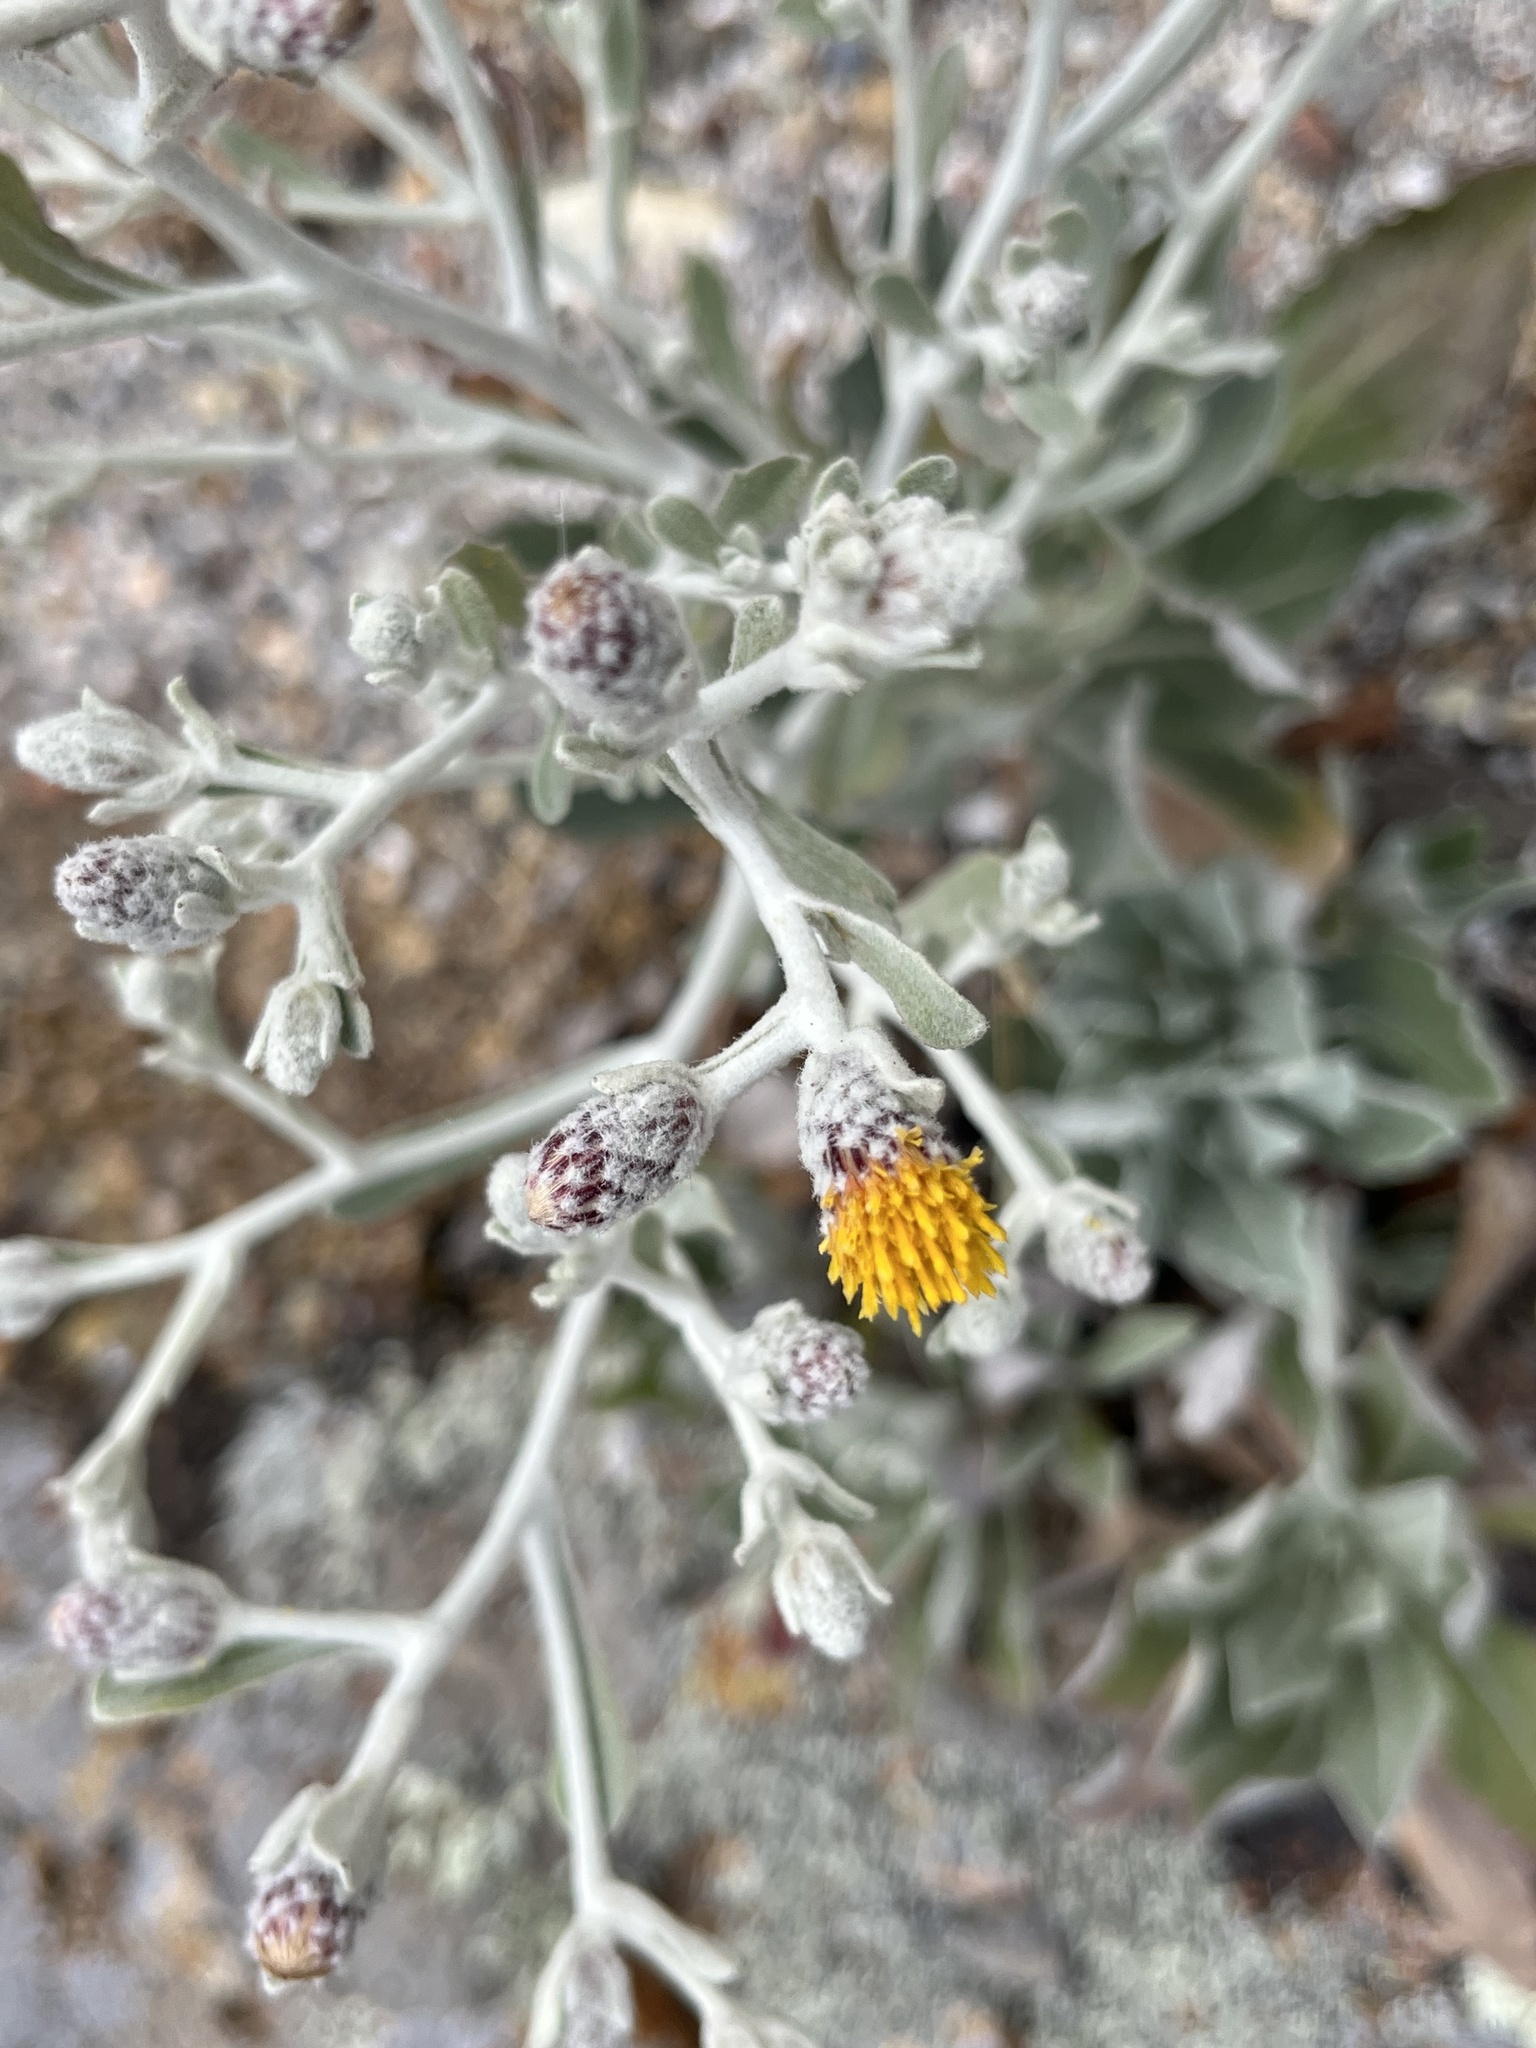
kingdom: Plantae
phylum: Tracheophyta
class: Magnoliopsida
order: Asterales
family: Asteraceae
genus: Hazardia
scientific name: Hazardia detonsa
